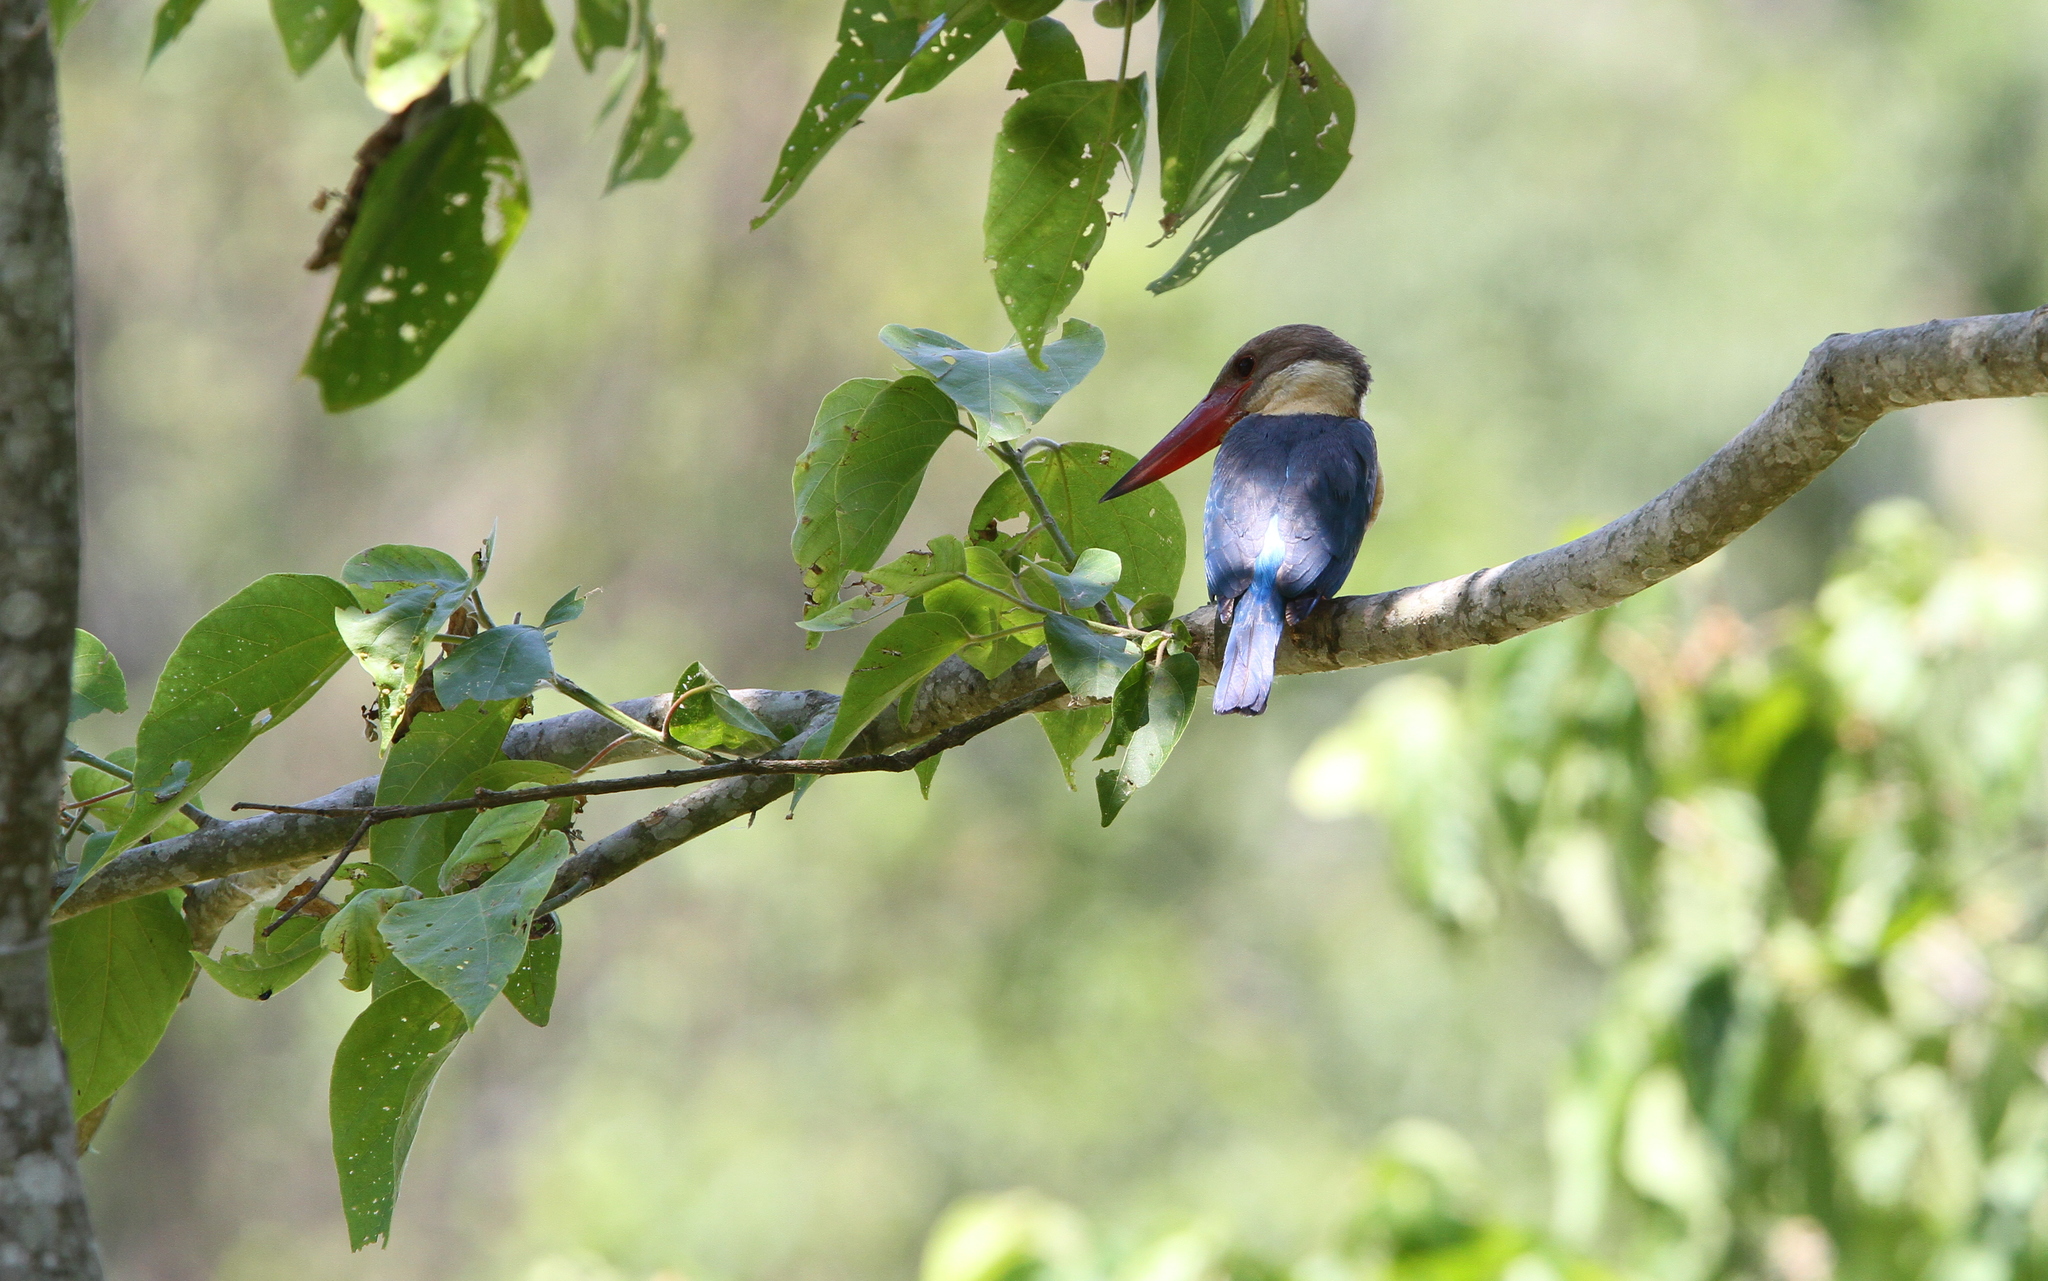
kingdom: Animalia
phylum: Chordata
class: Aves
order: Coraciiformes
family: Alcedinidae
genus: Pelargopsis
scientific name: Pelargopsis capensis
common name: Stork-billed kingfisher
